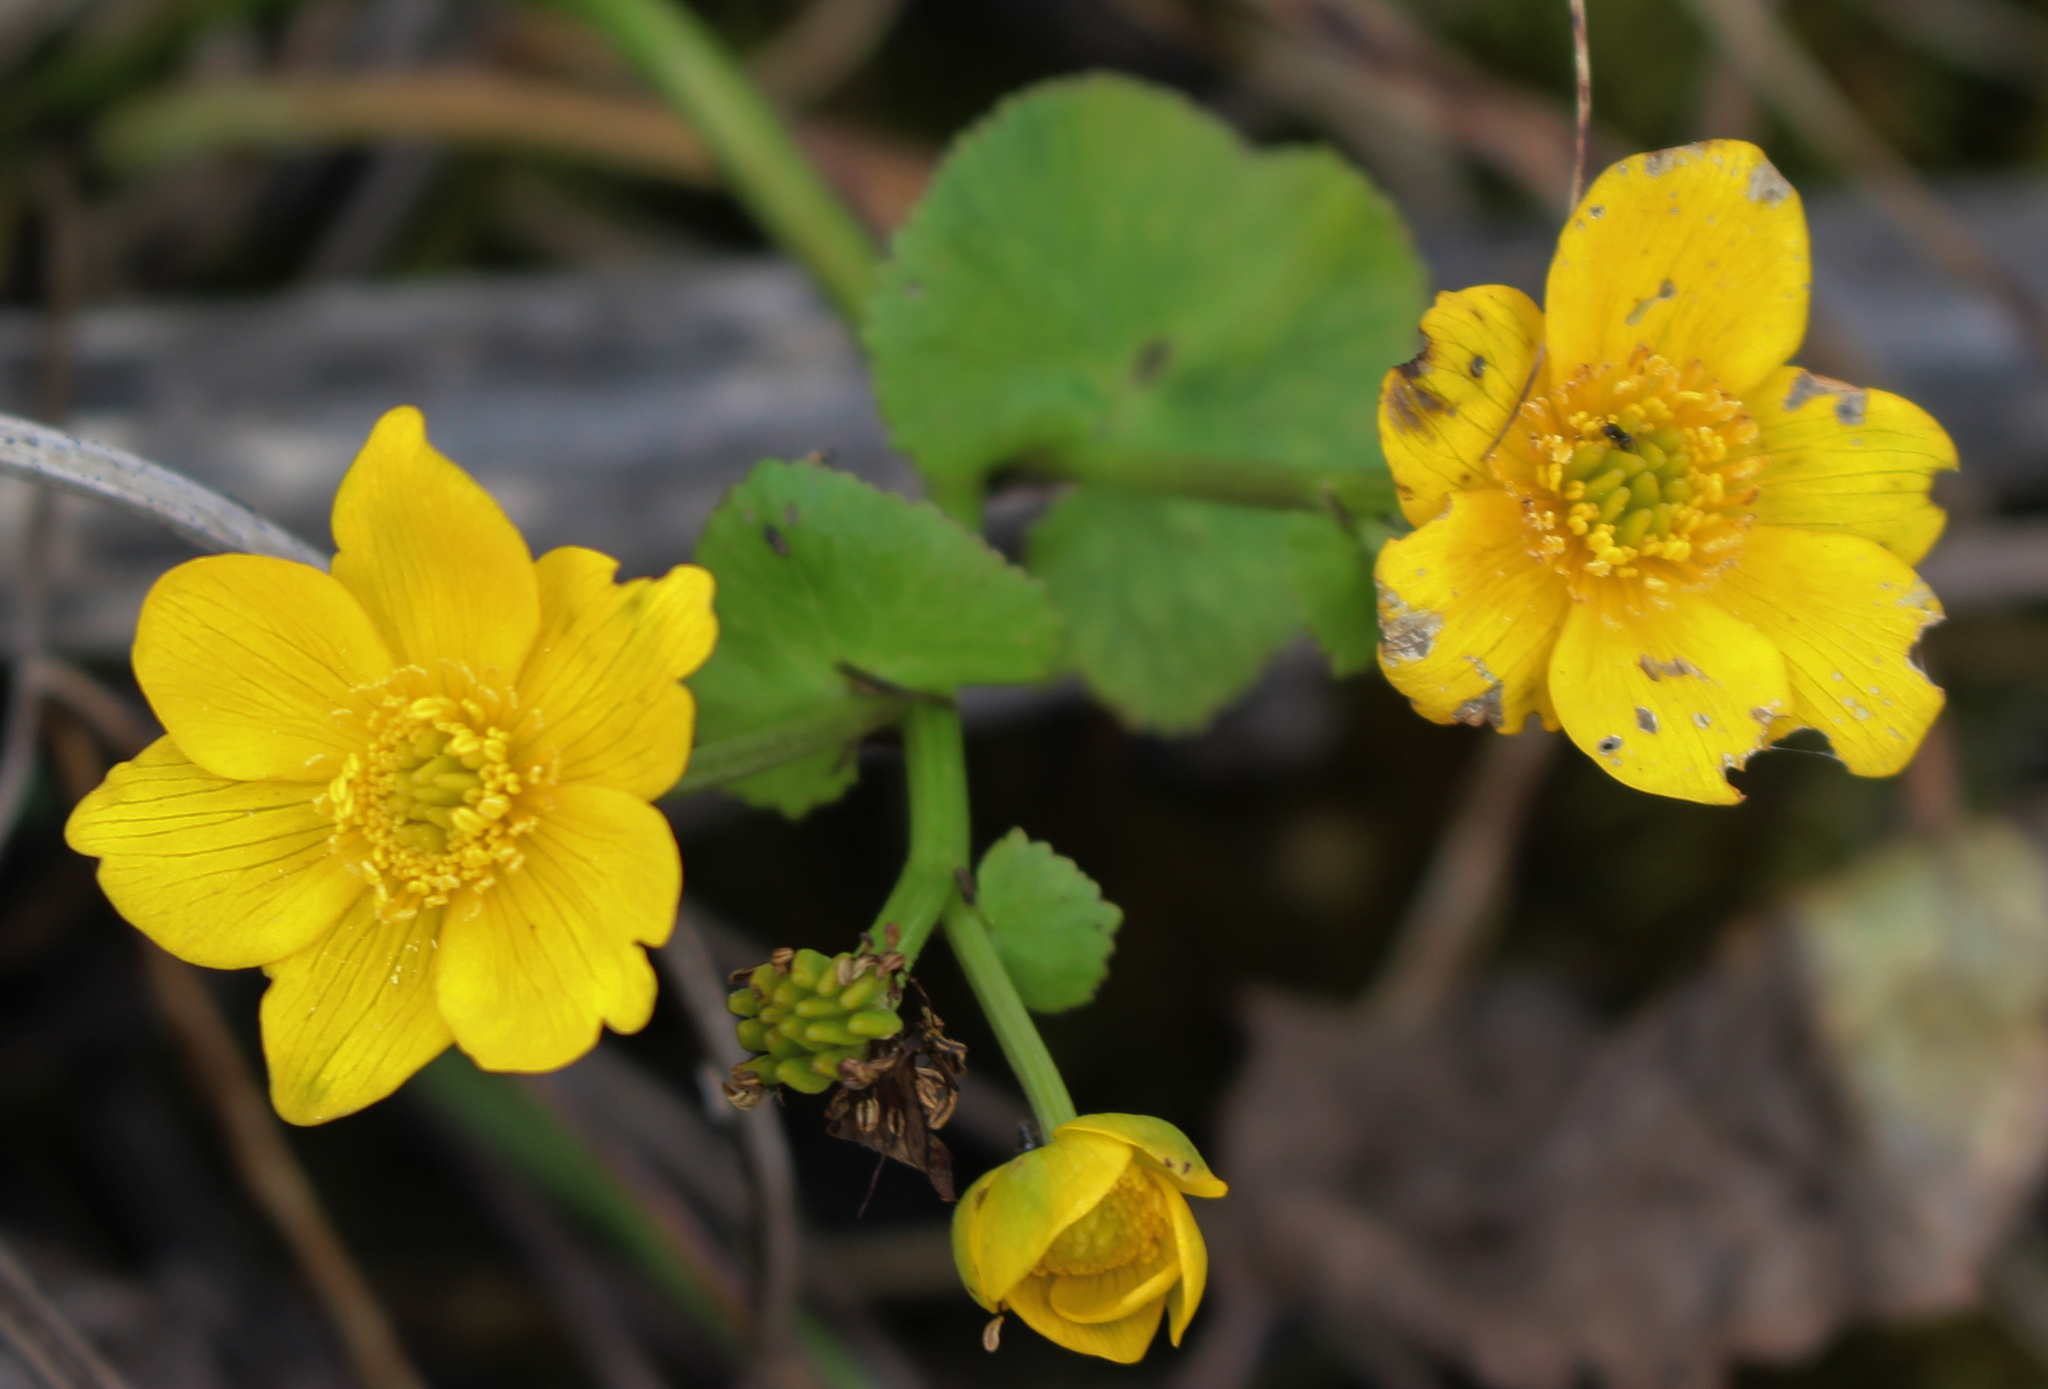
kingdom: Plantae
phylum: Tracheophyta
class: Magnoliopsida
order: Ranunculales
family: Ranunculaceae
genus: Caltha
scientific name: Caltha palustris
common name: Marsh marigold
